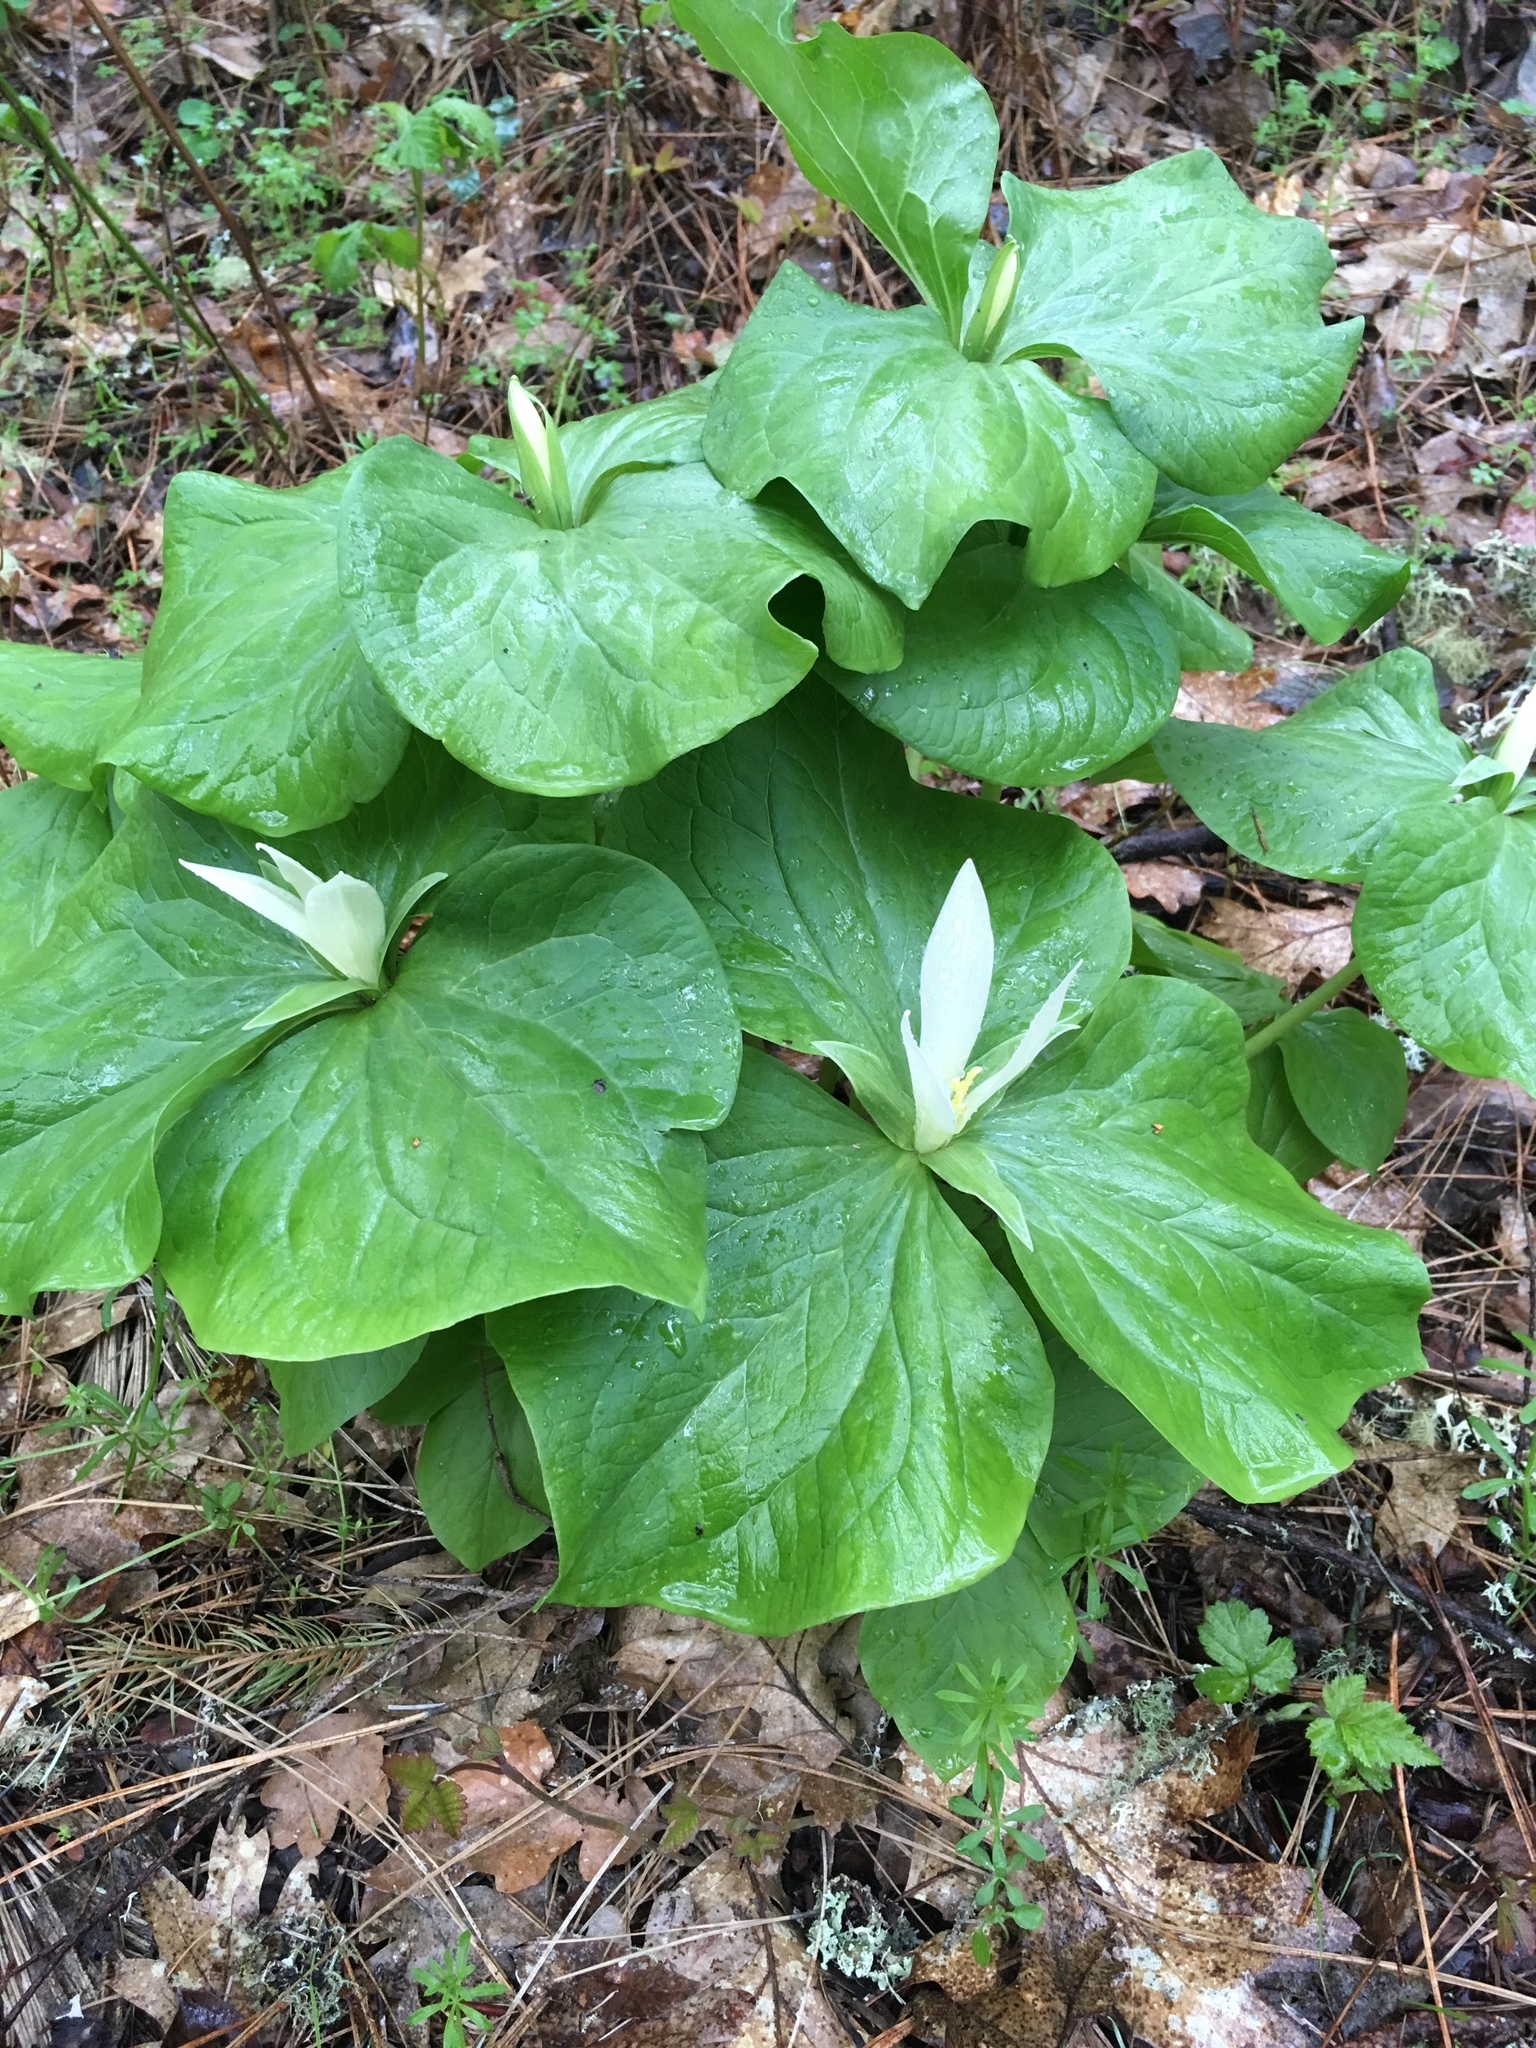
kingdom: Plantae
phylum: Tracheophyta
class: Liliopsida
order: Liliales
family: Melanthiaceae
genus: Trillium
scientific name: Trillium albidum
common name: Freeman's trillium
